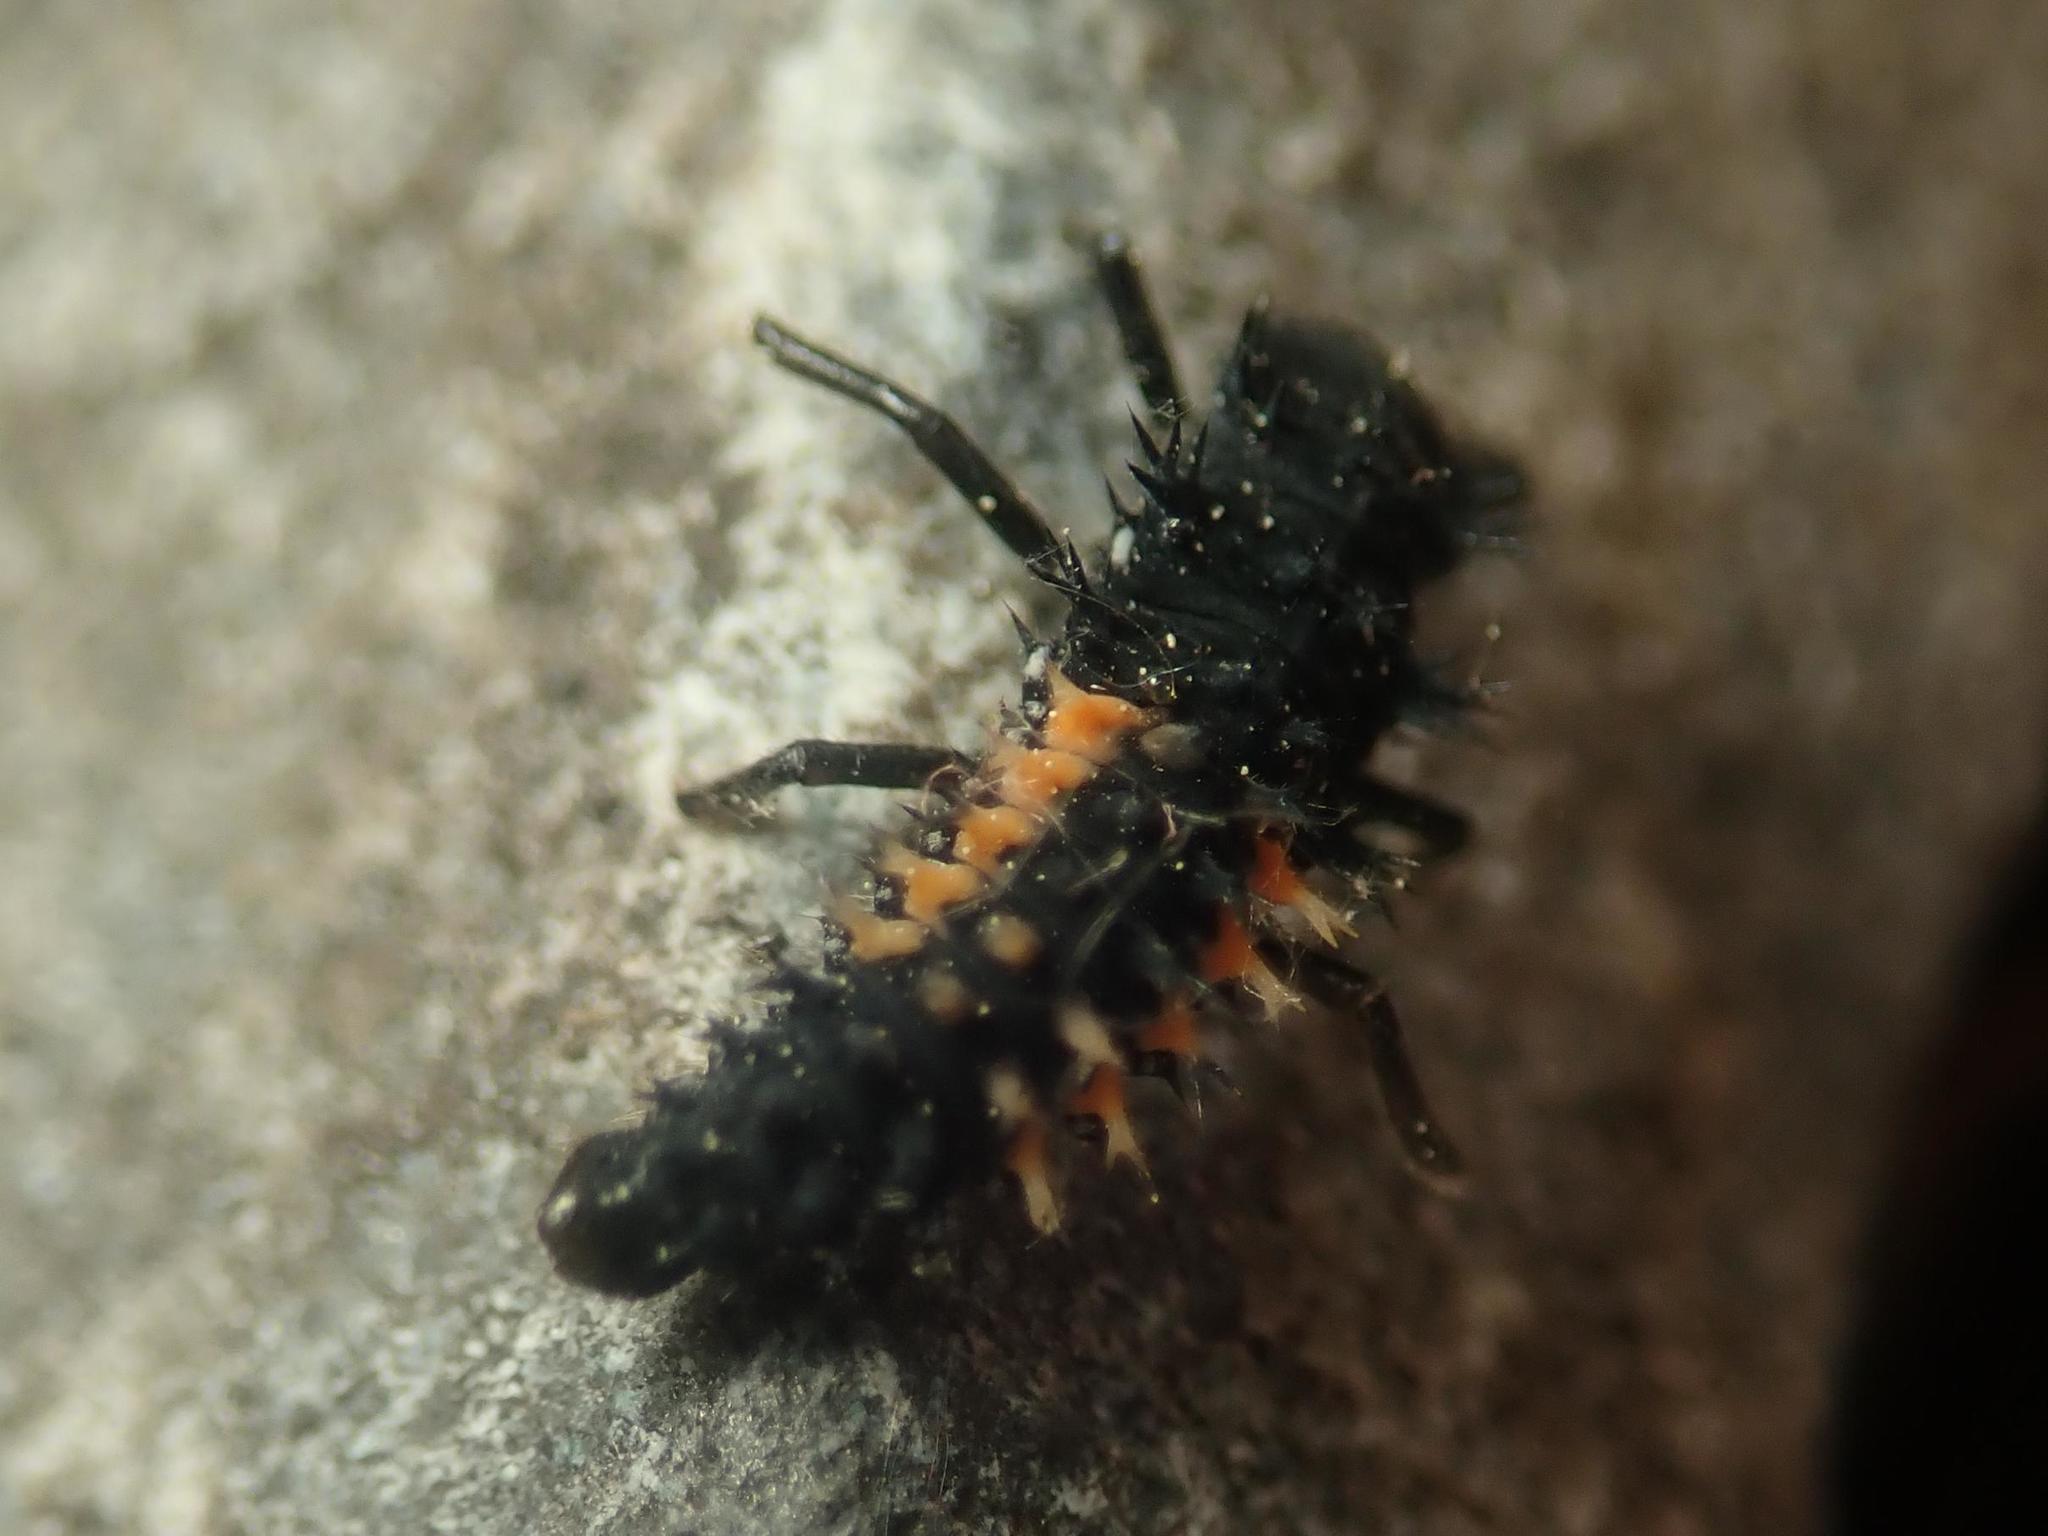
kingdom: Animalia
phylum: Arthropoda
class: Insecta
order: Coleoptera
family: Coccinellidae
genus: Harmonia
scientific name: Harmonia axyridis
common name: Harlequin ladybird
